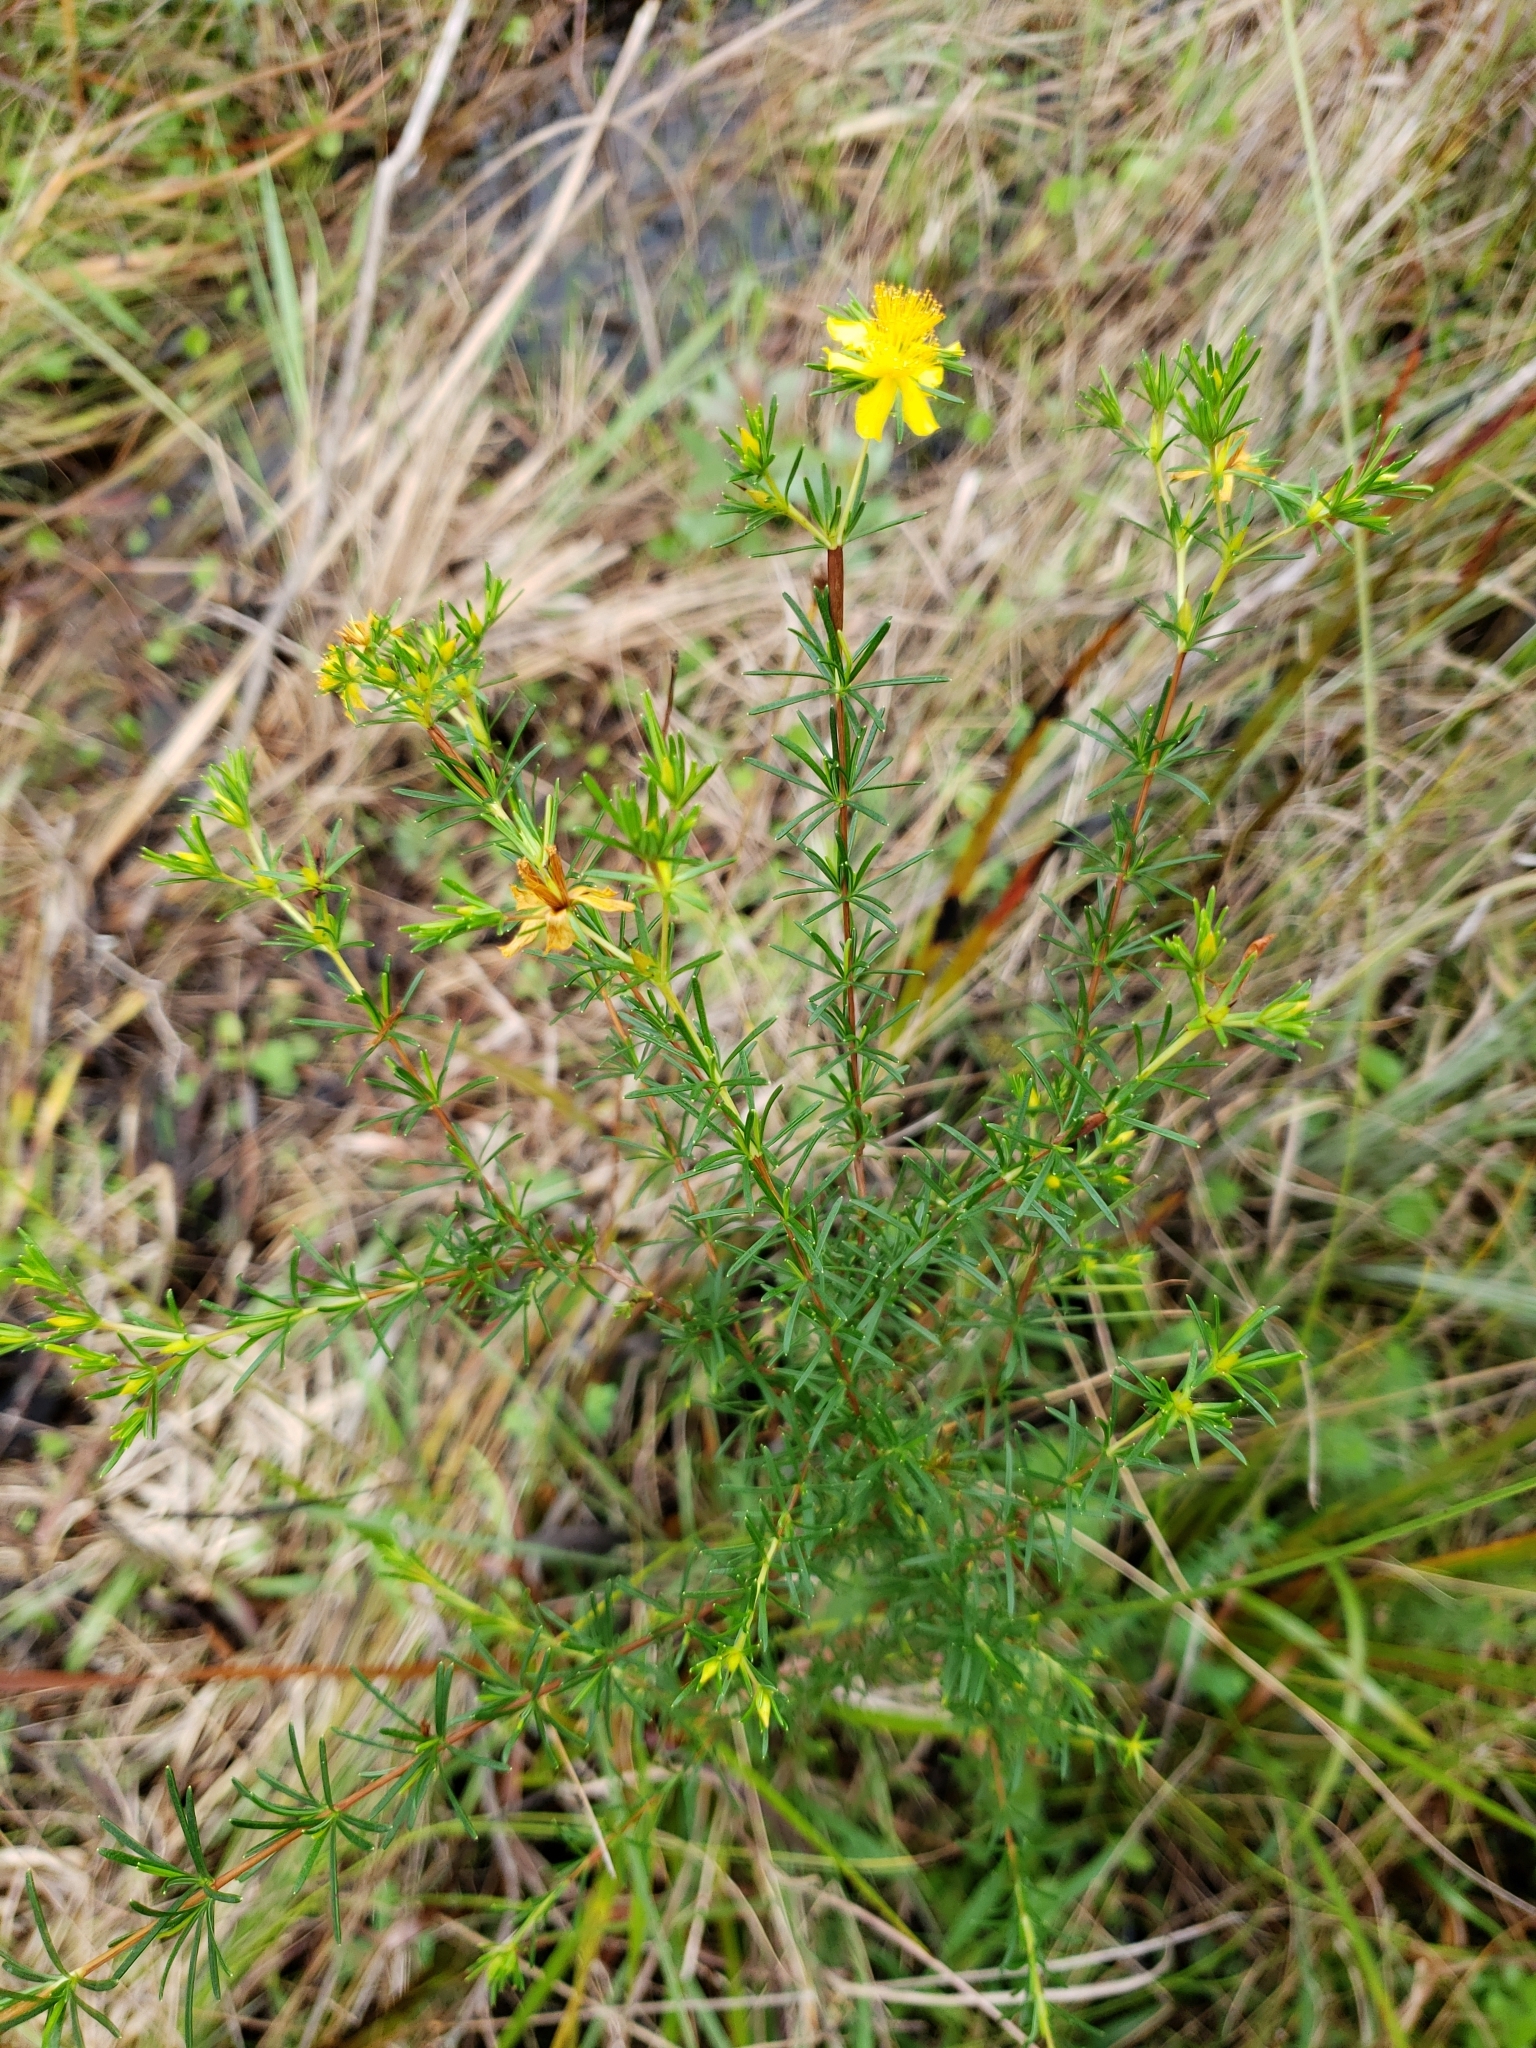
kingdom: Plantae
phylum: Tracheophyta
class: Magnoliopsida
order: Malpighiales
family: Hypericaceae
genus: Hypericum
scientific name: Hypericum fasciculatum
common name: Peelbark st. john's wort
